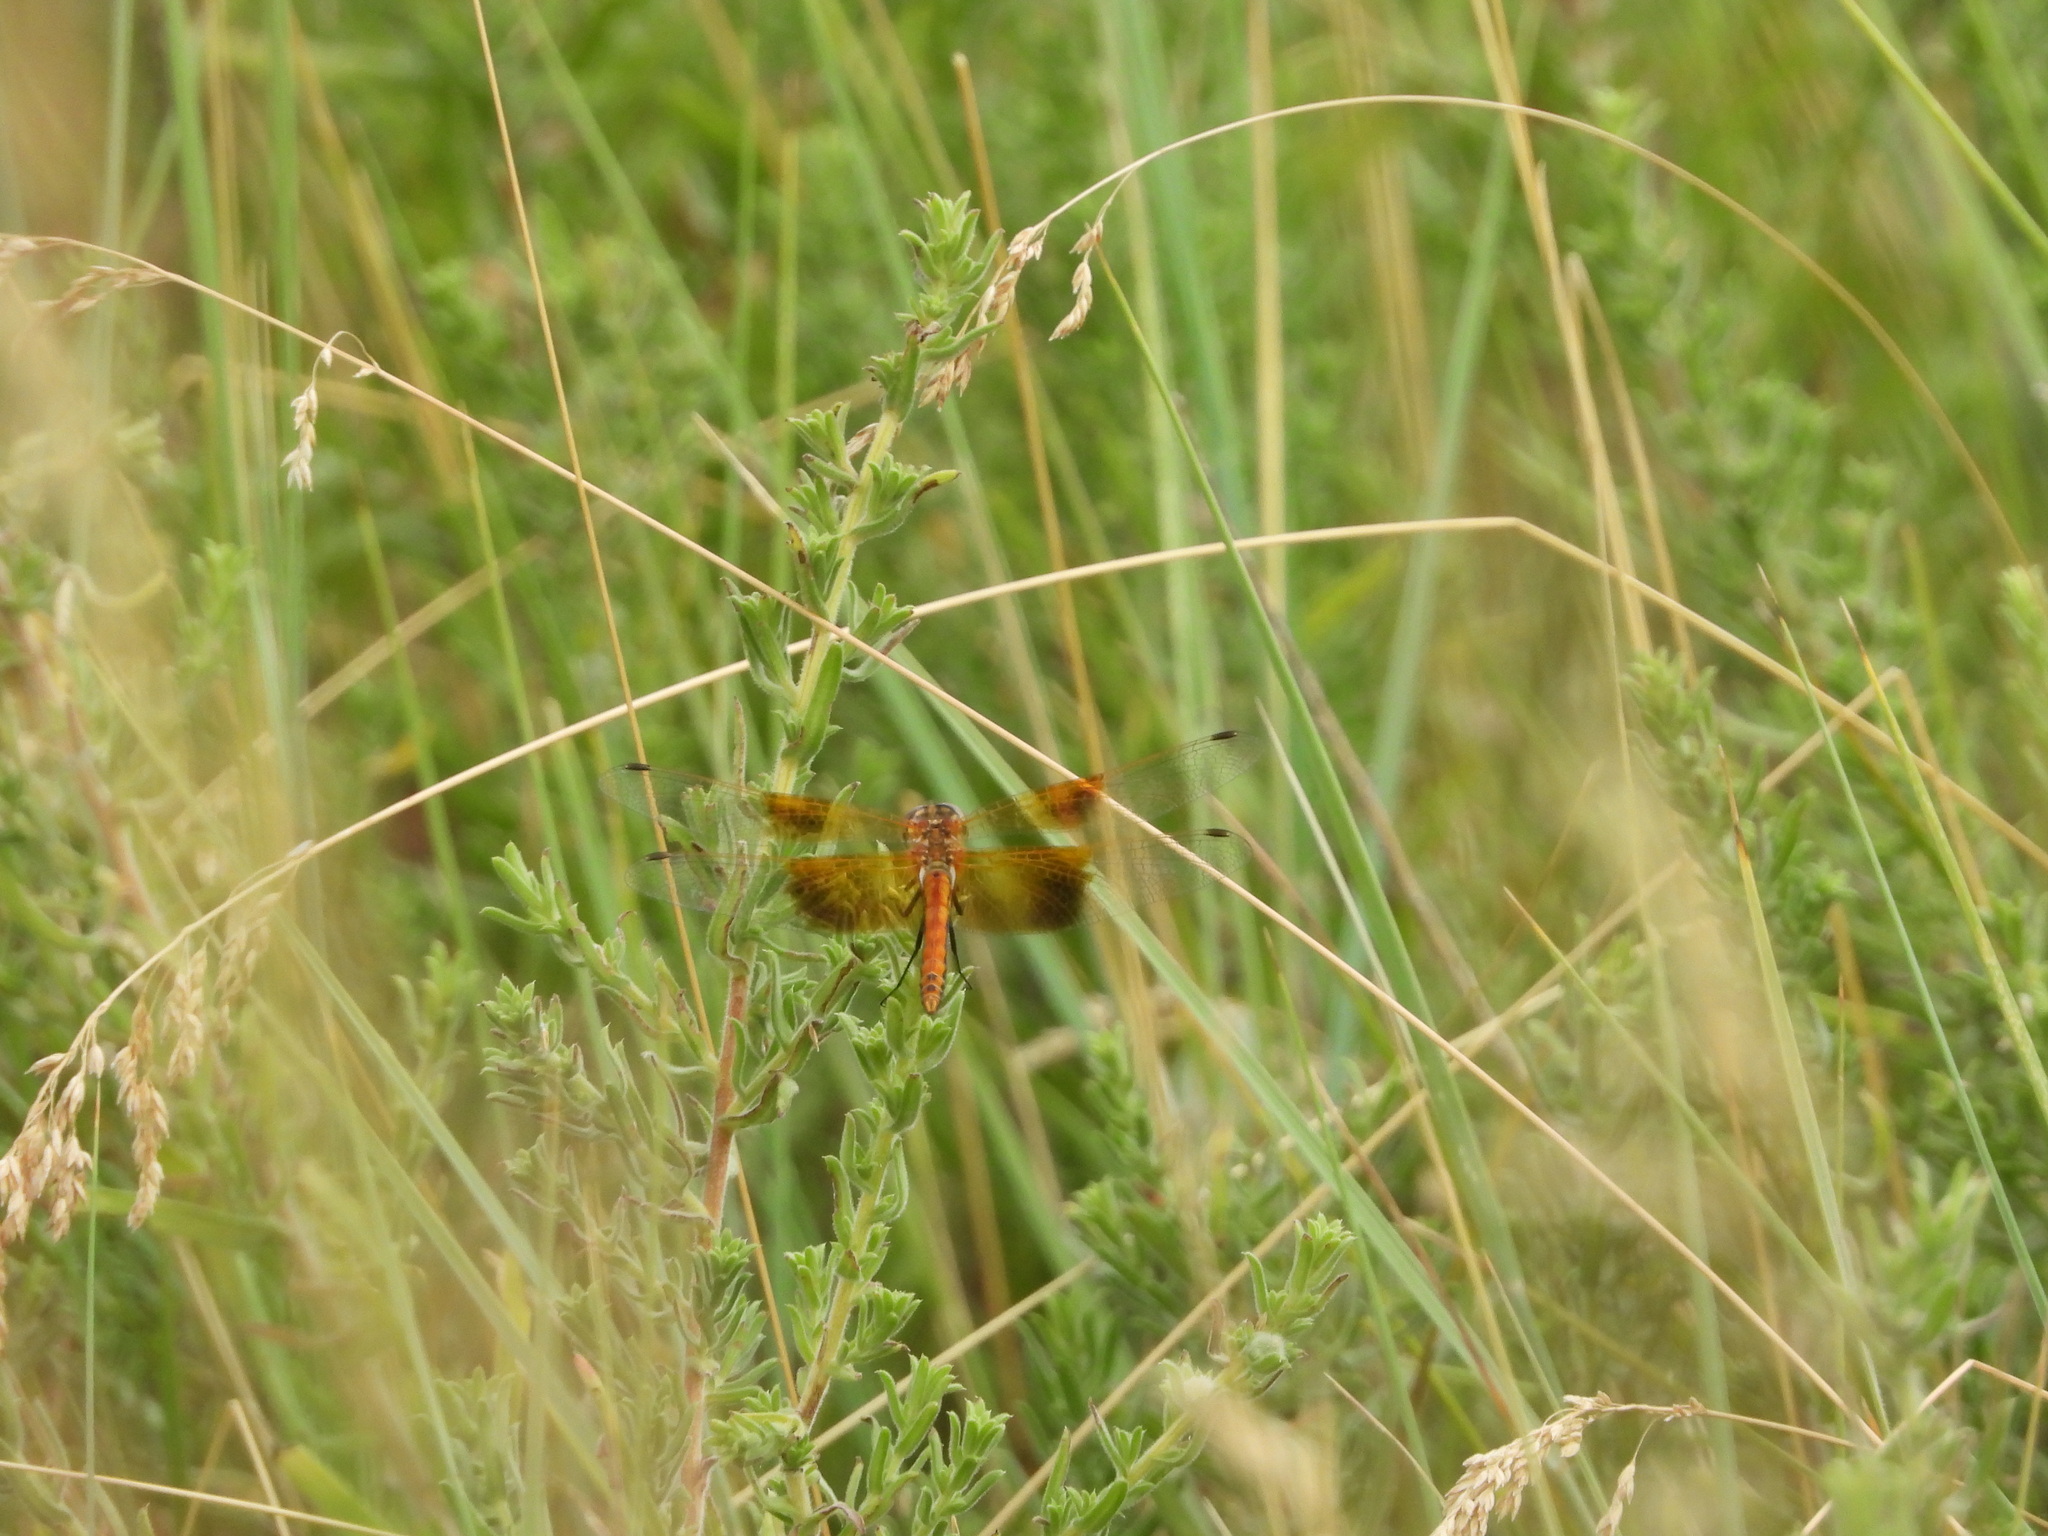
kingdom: Animalia
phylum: Arthropoda
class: Insecta
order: Odonata
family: Libellulidae
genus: Sympetrum
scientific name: Sympetrum semicinctum
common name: Band-winged meadowhawk
